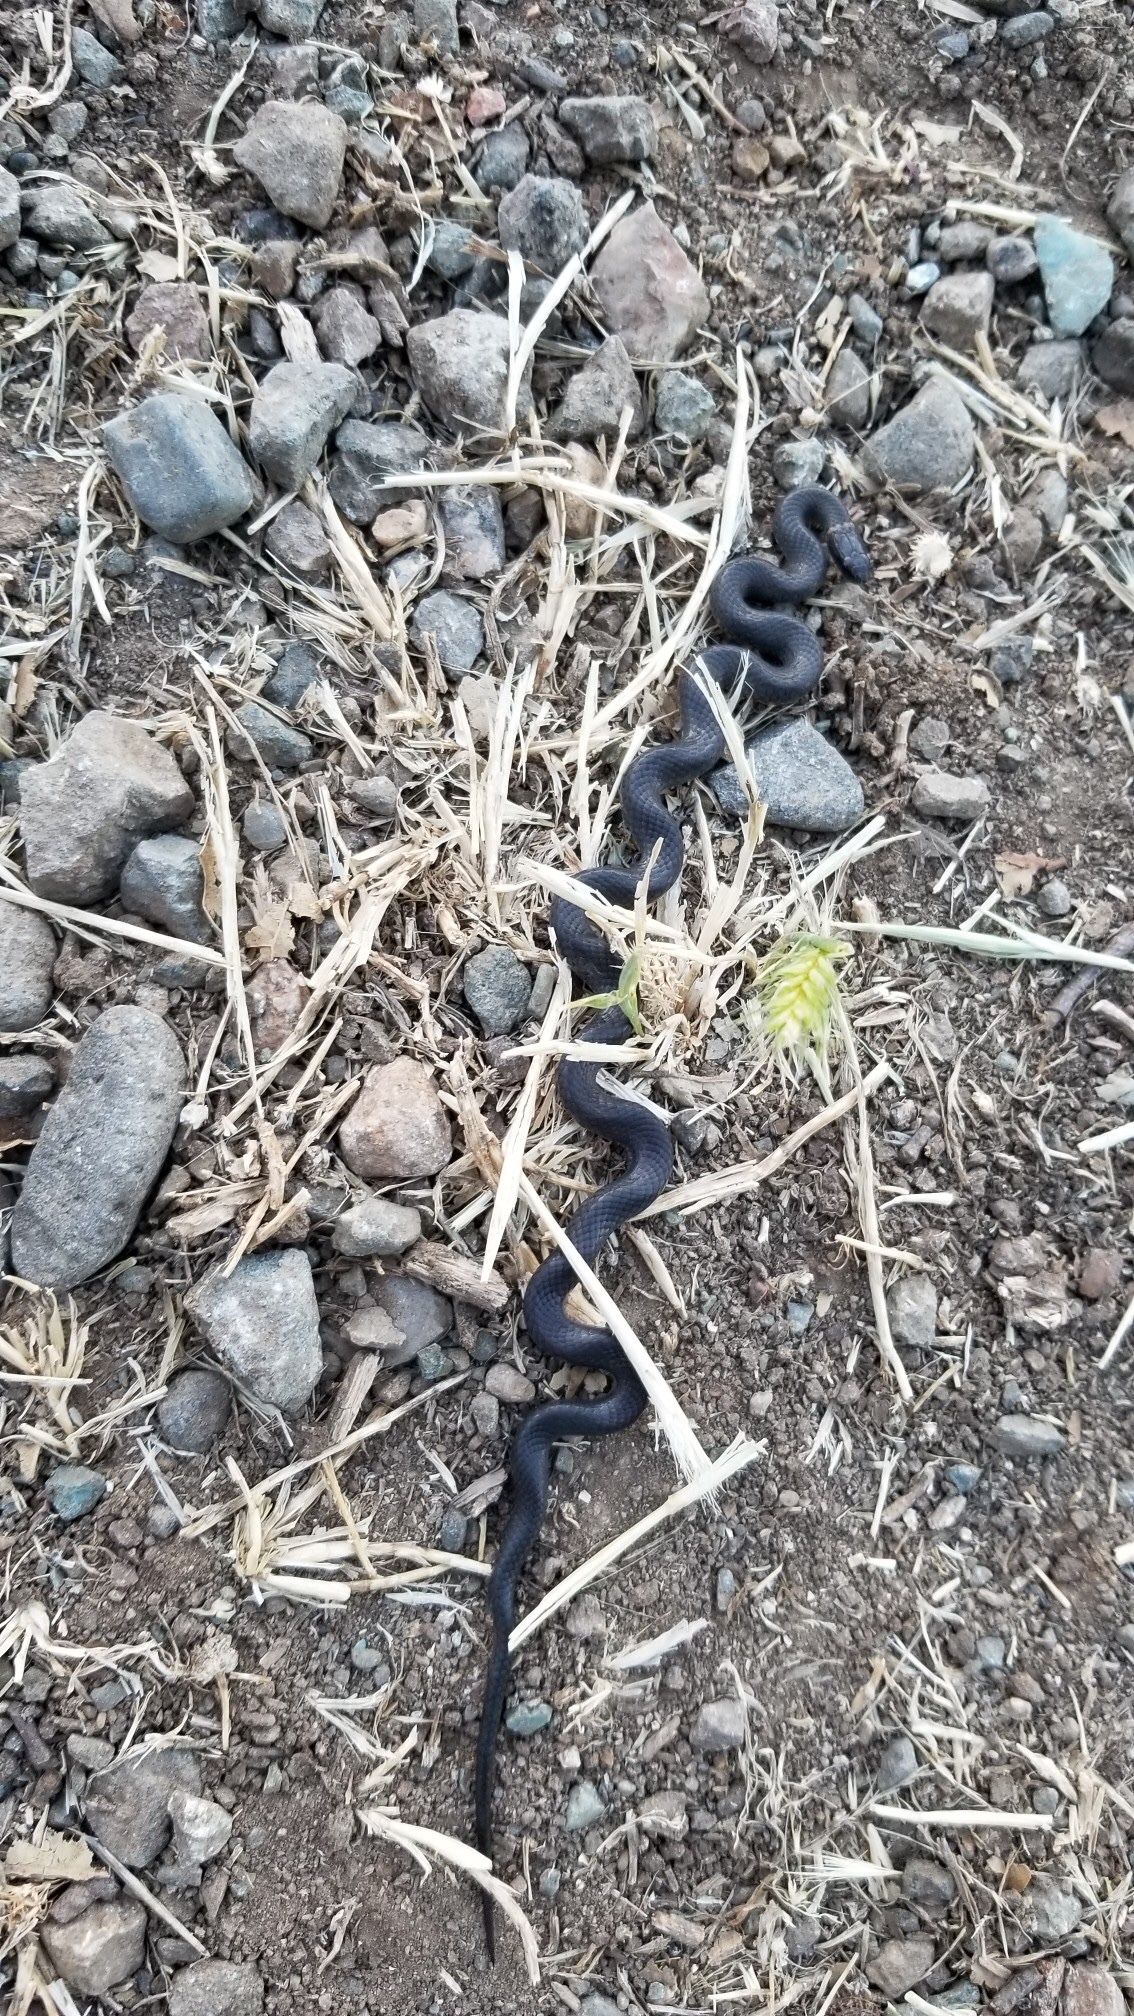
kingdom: Animalia
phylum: Chordata
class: Squamata
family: Colubridae
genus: Diadophis
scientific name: Diadophis punctatus
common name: Ringneck snake
